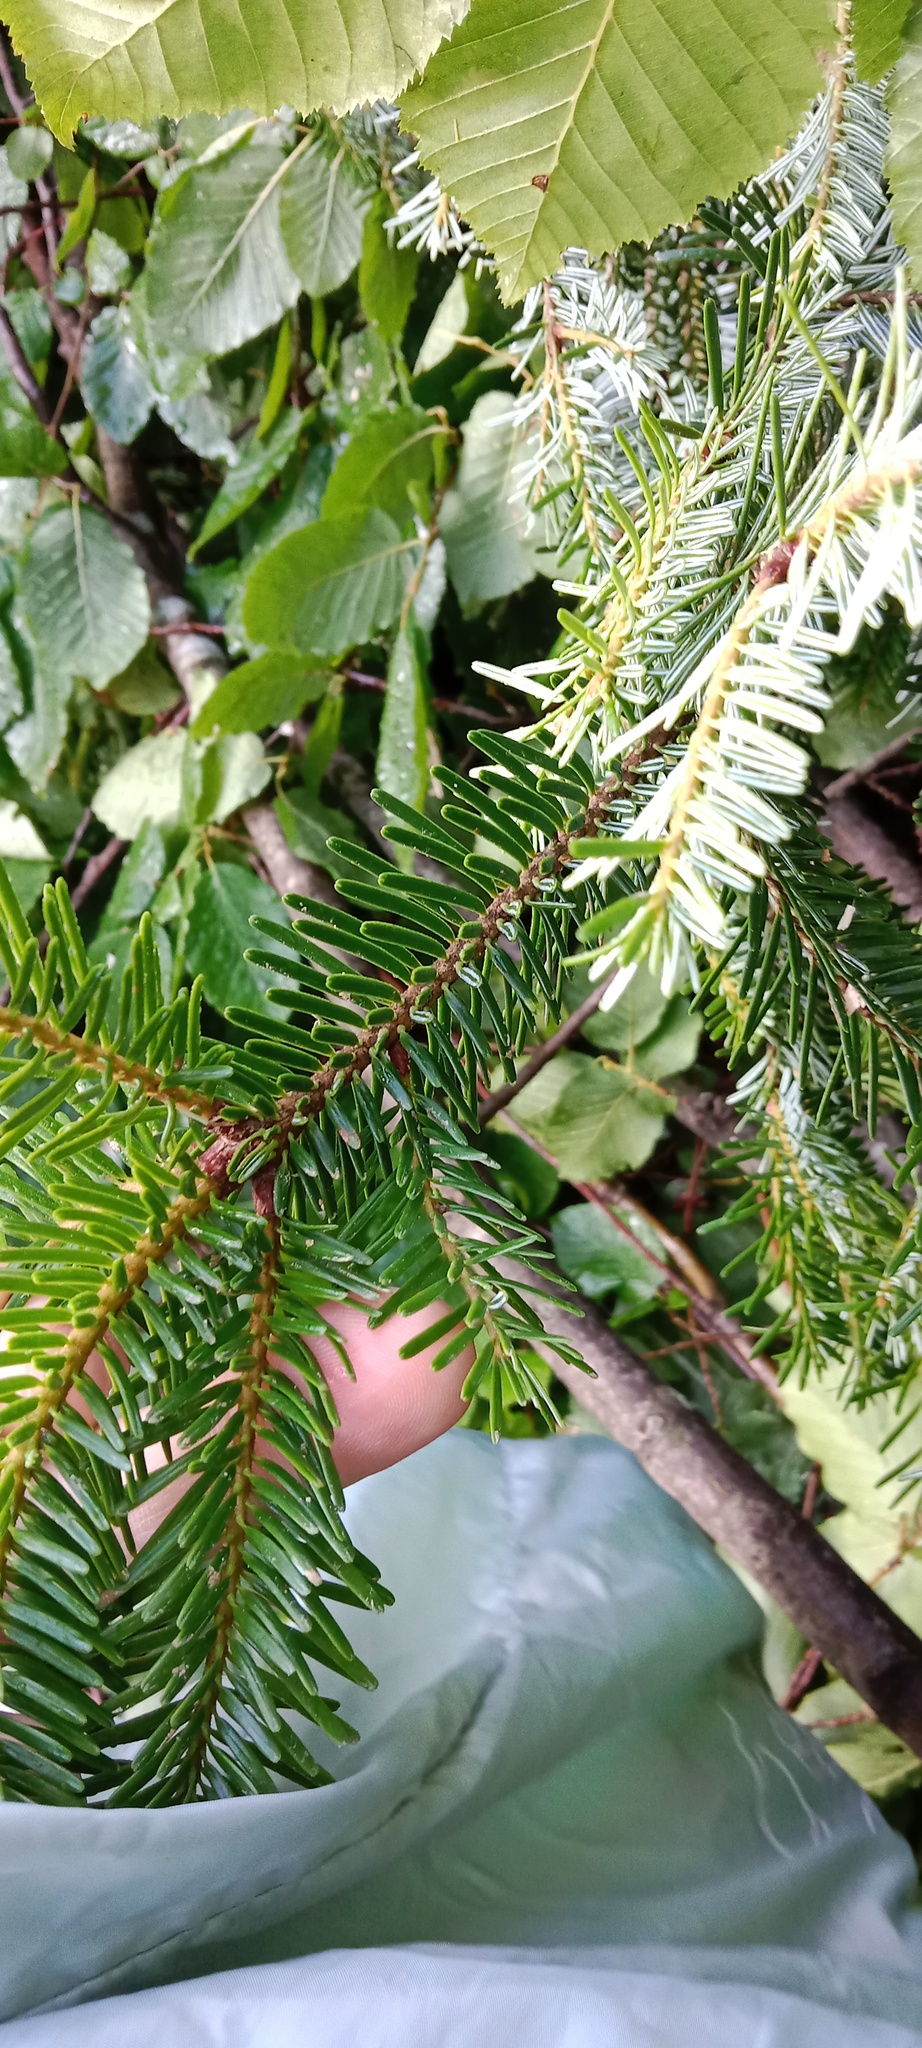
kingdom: Plantae
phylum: Tracheophyta
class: Pinopsida
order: Pinales
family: Pinaceae
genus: Abies
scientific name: Abies alba
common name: Silver fir
